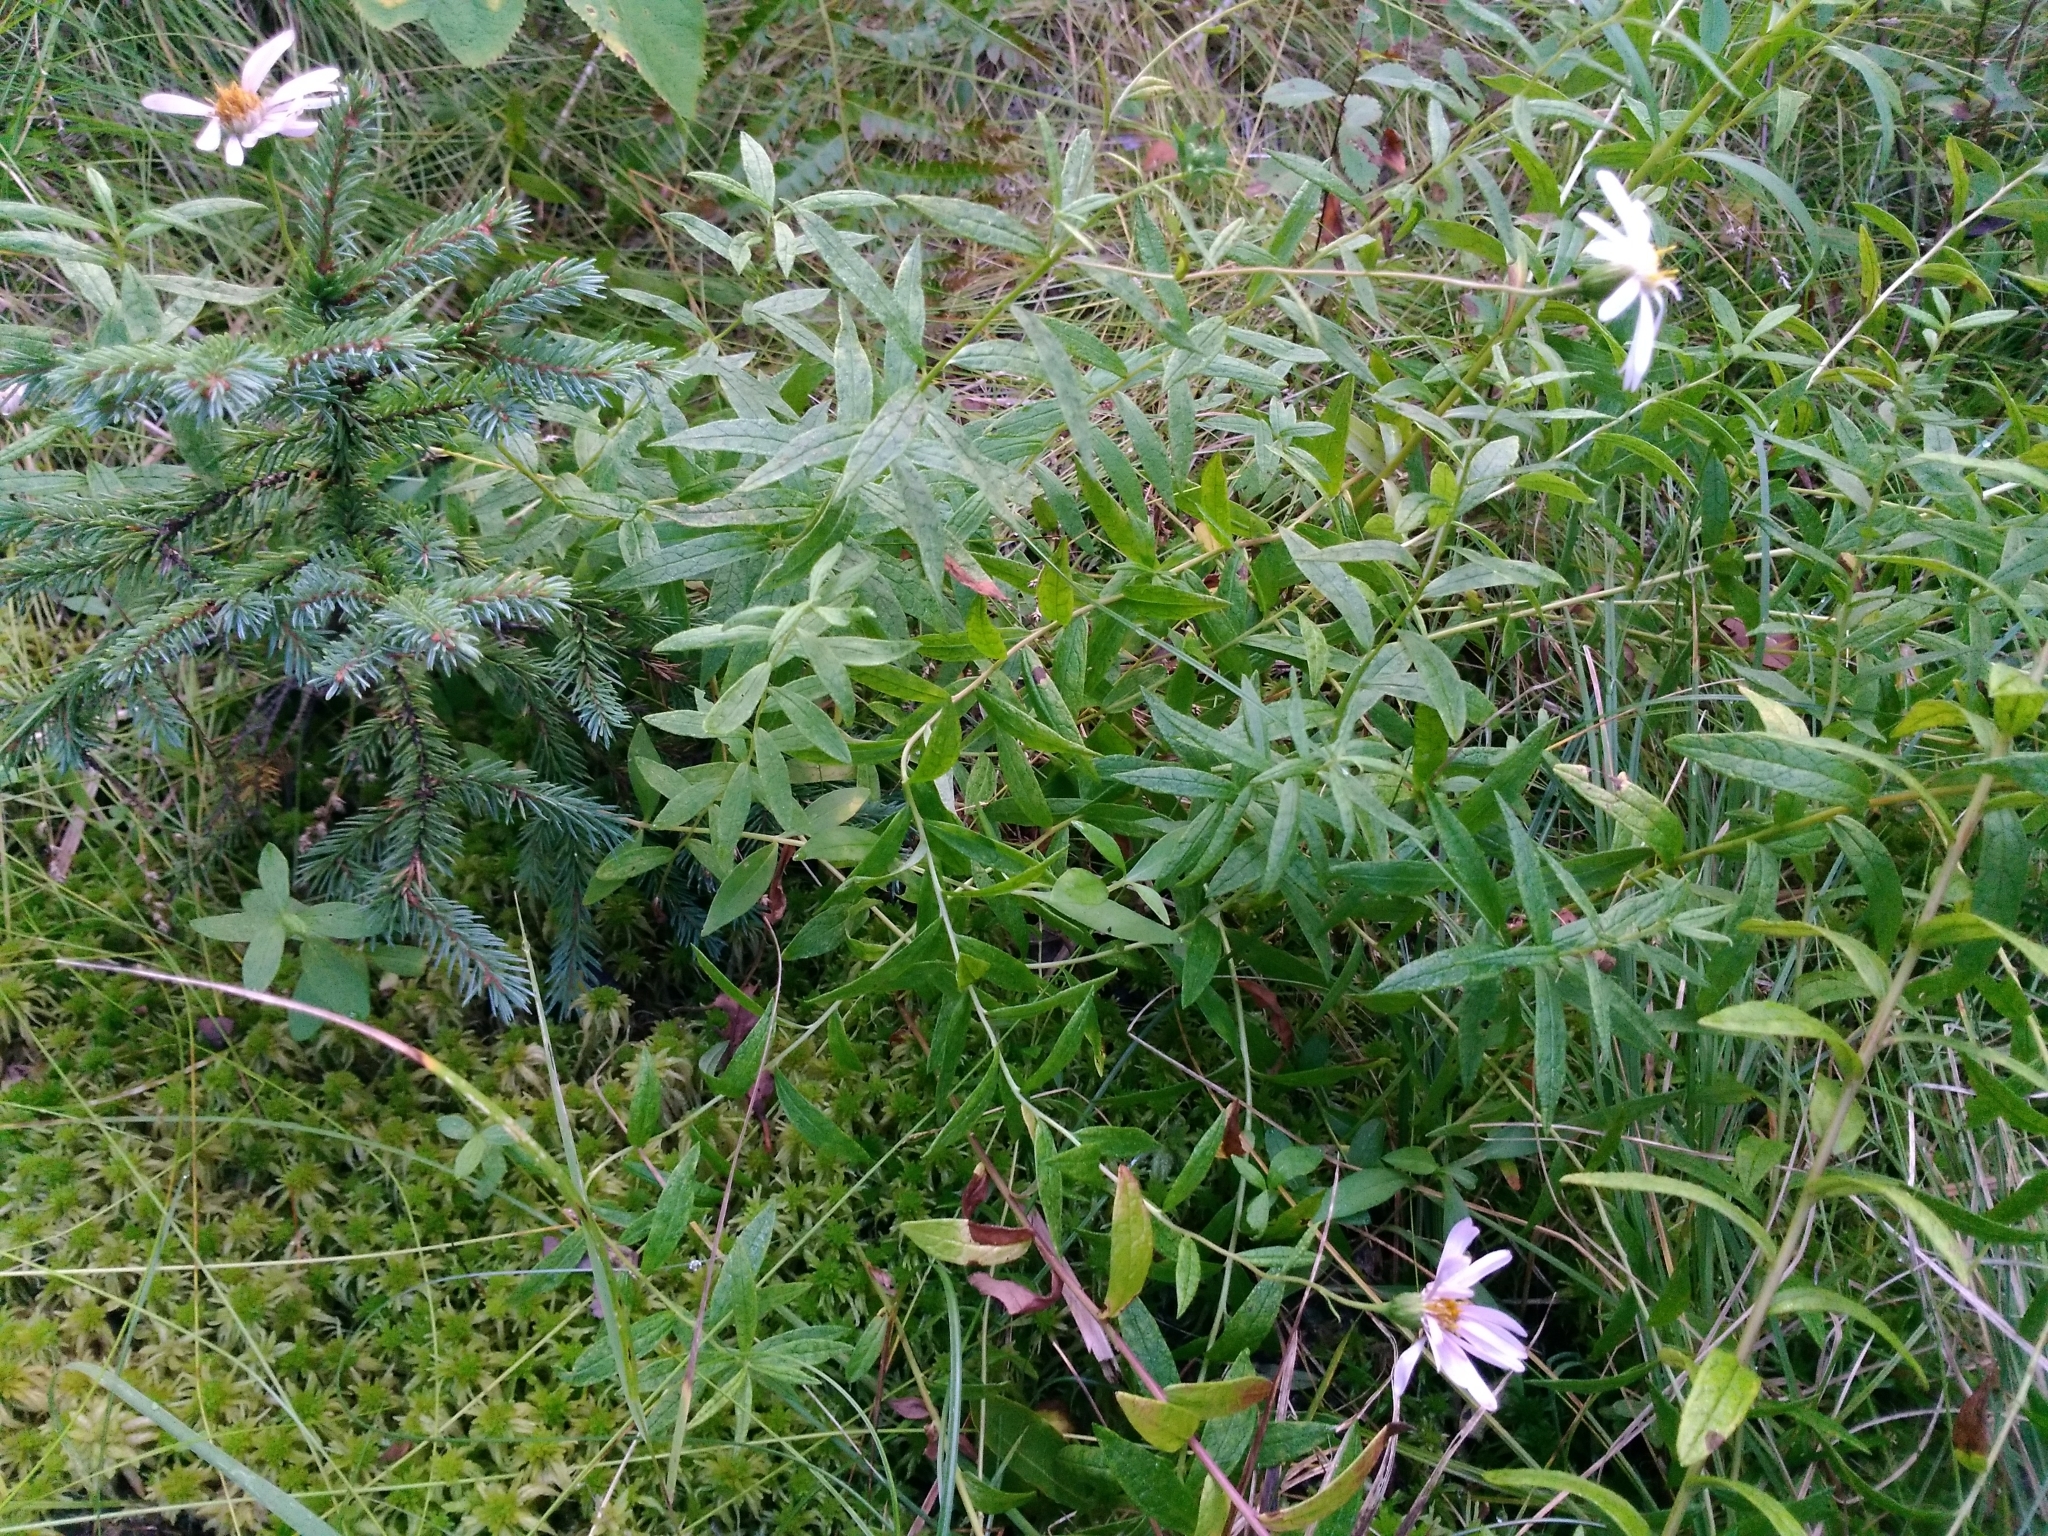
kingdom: Plantae
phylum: Tracheophyta
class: Magnoliopsida
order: Asterales
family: Asteraceae
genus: Oclemena
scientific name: Oclemena nemoralis
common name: Bog aster
